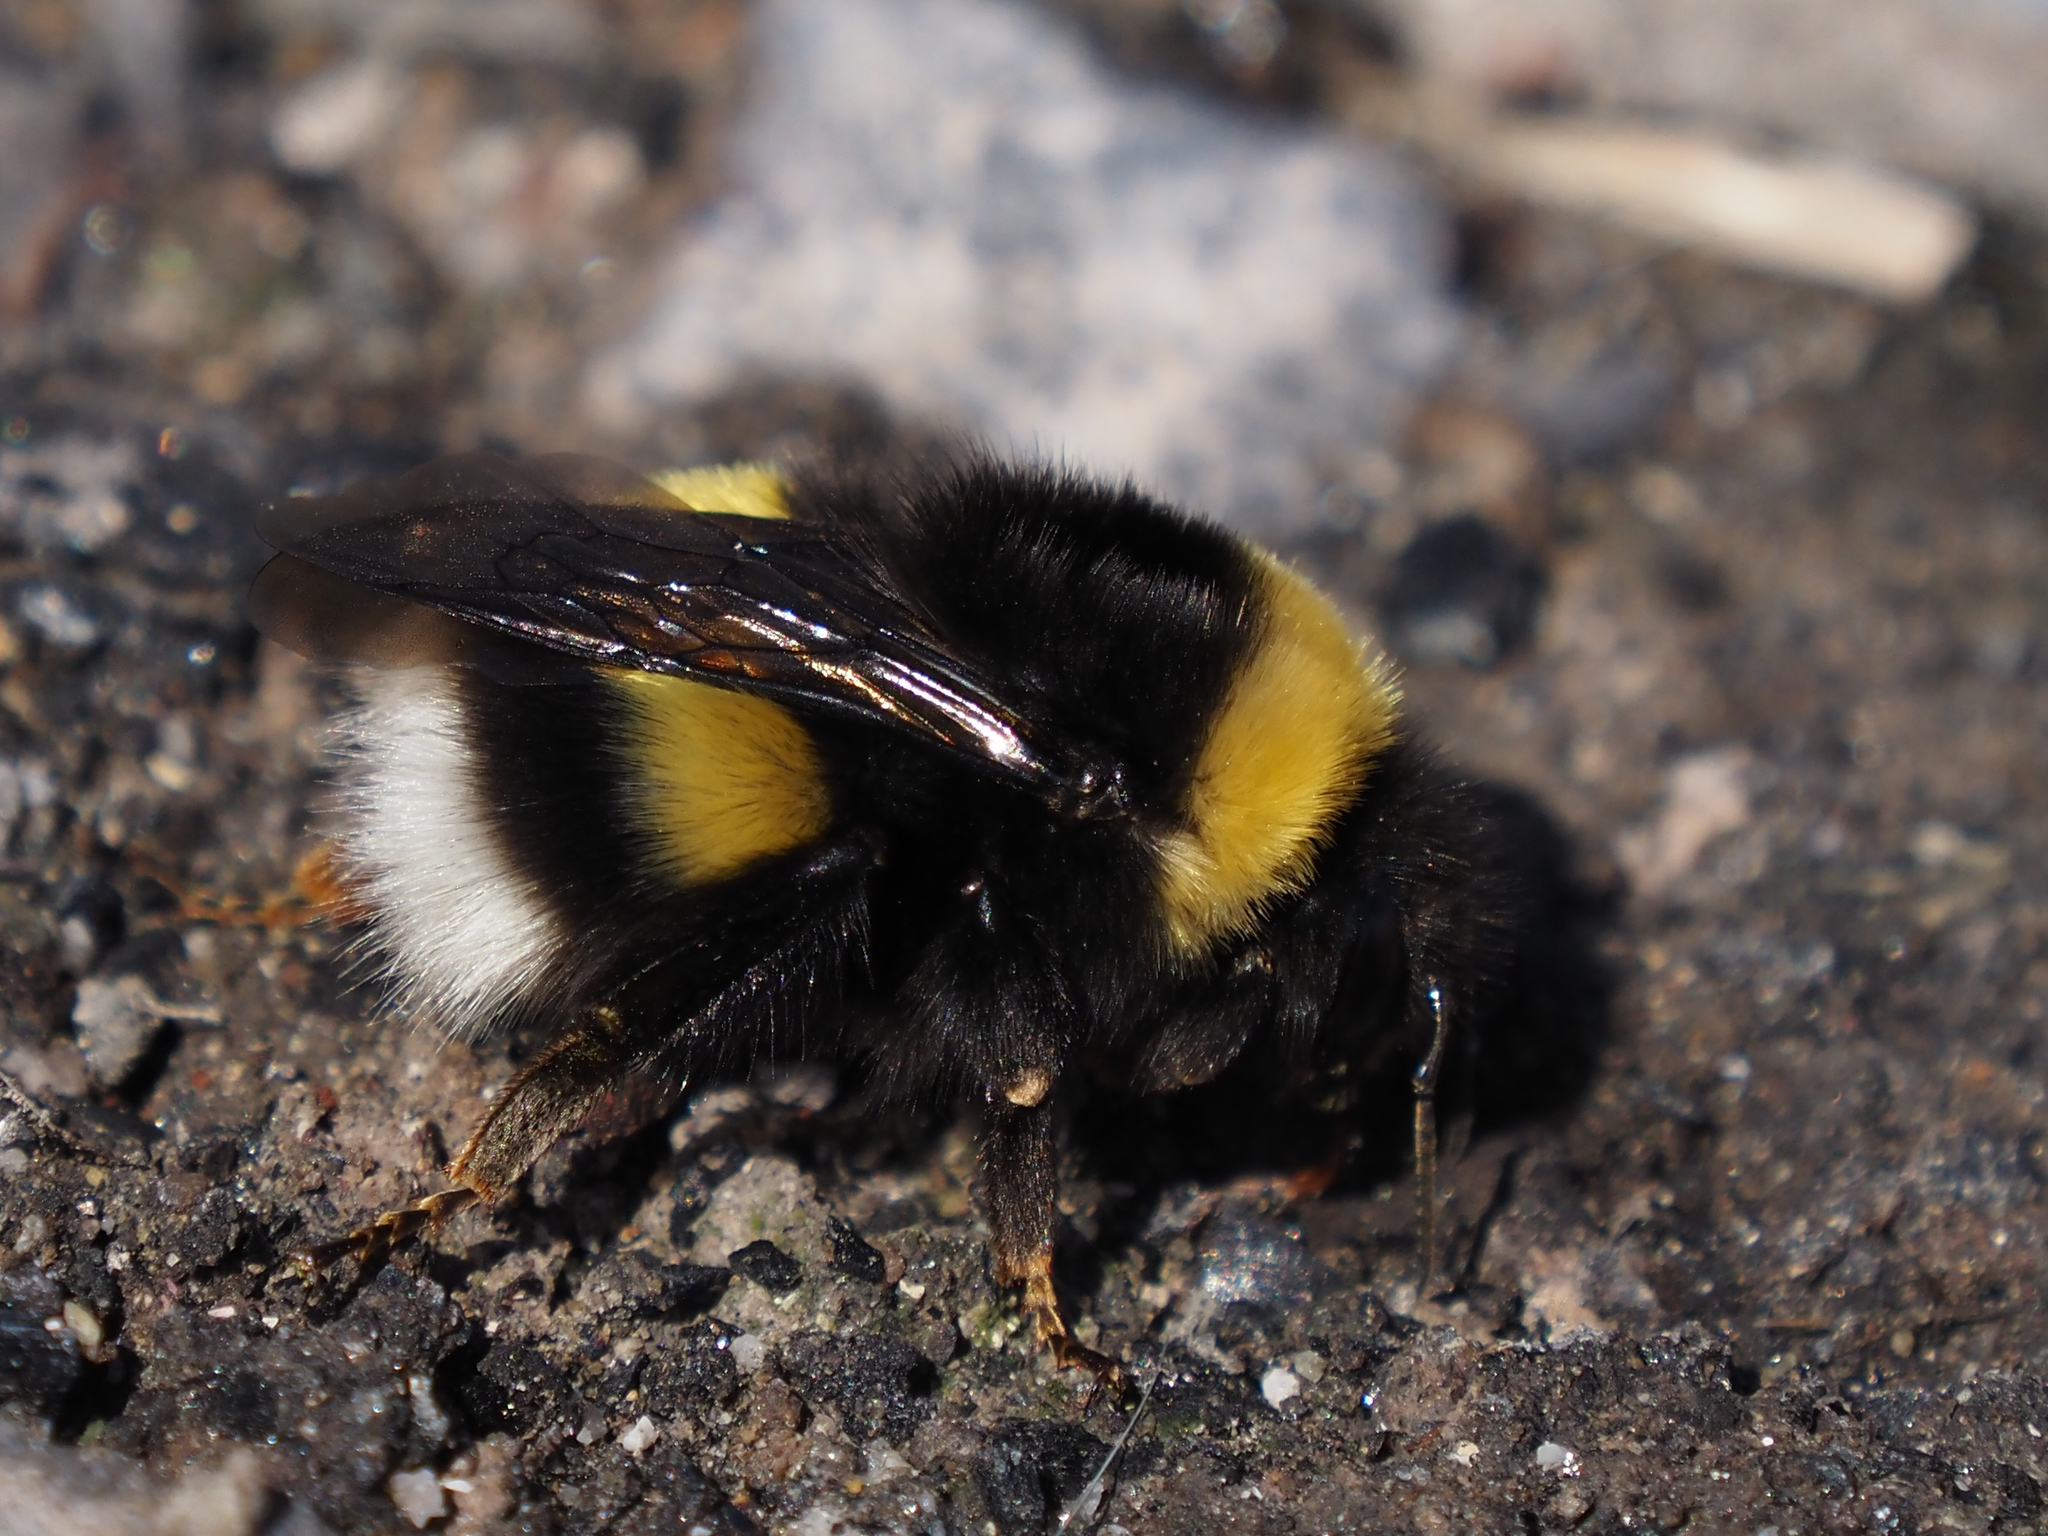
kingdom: Animalia
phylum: Arthropoda
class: Insecta
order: Hymenoptera
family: Apidae
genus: Bombus
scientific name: Bombus cryptarum
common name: Cryptic bumblebee
